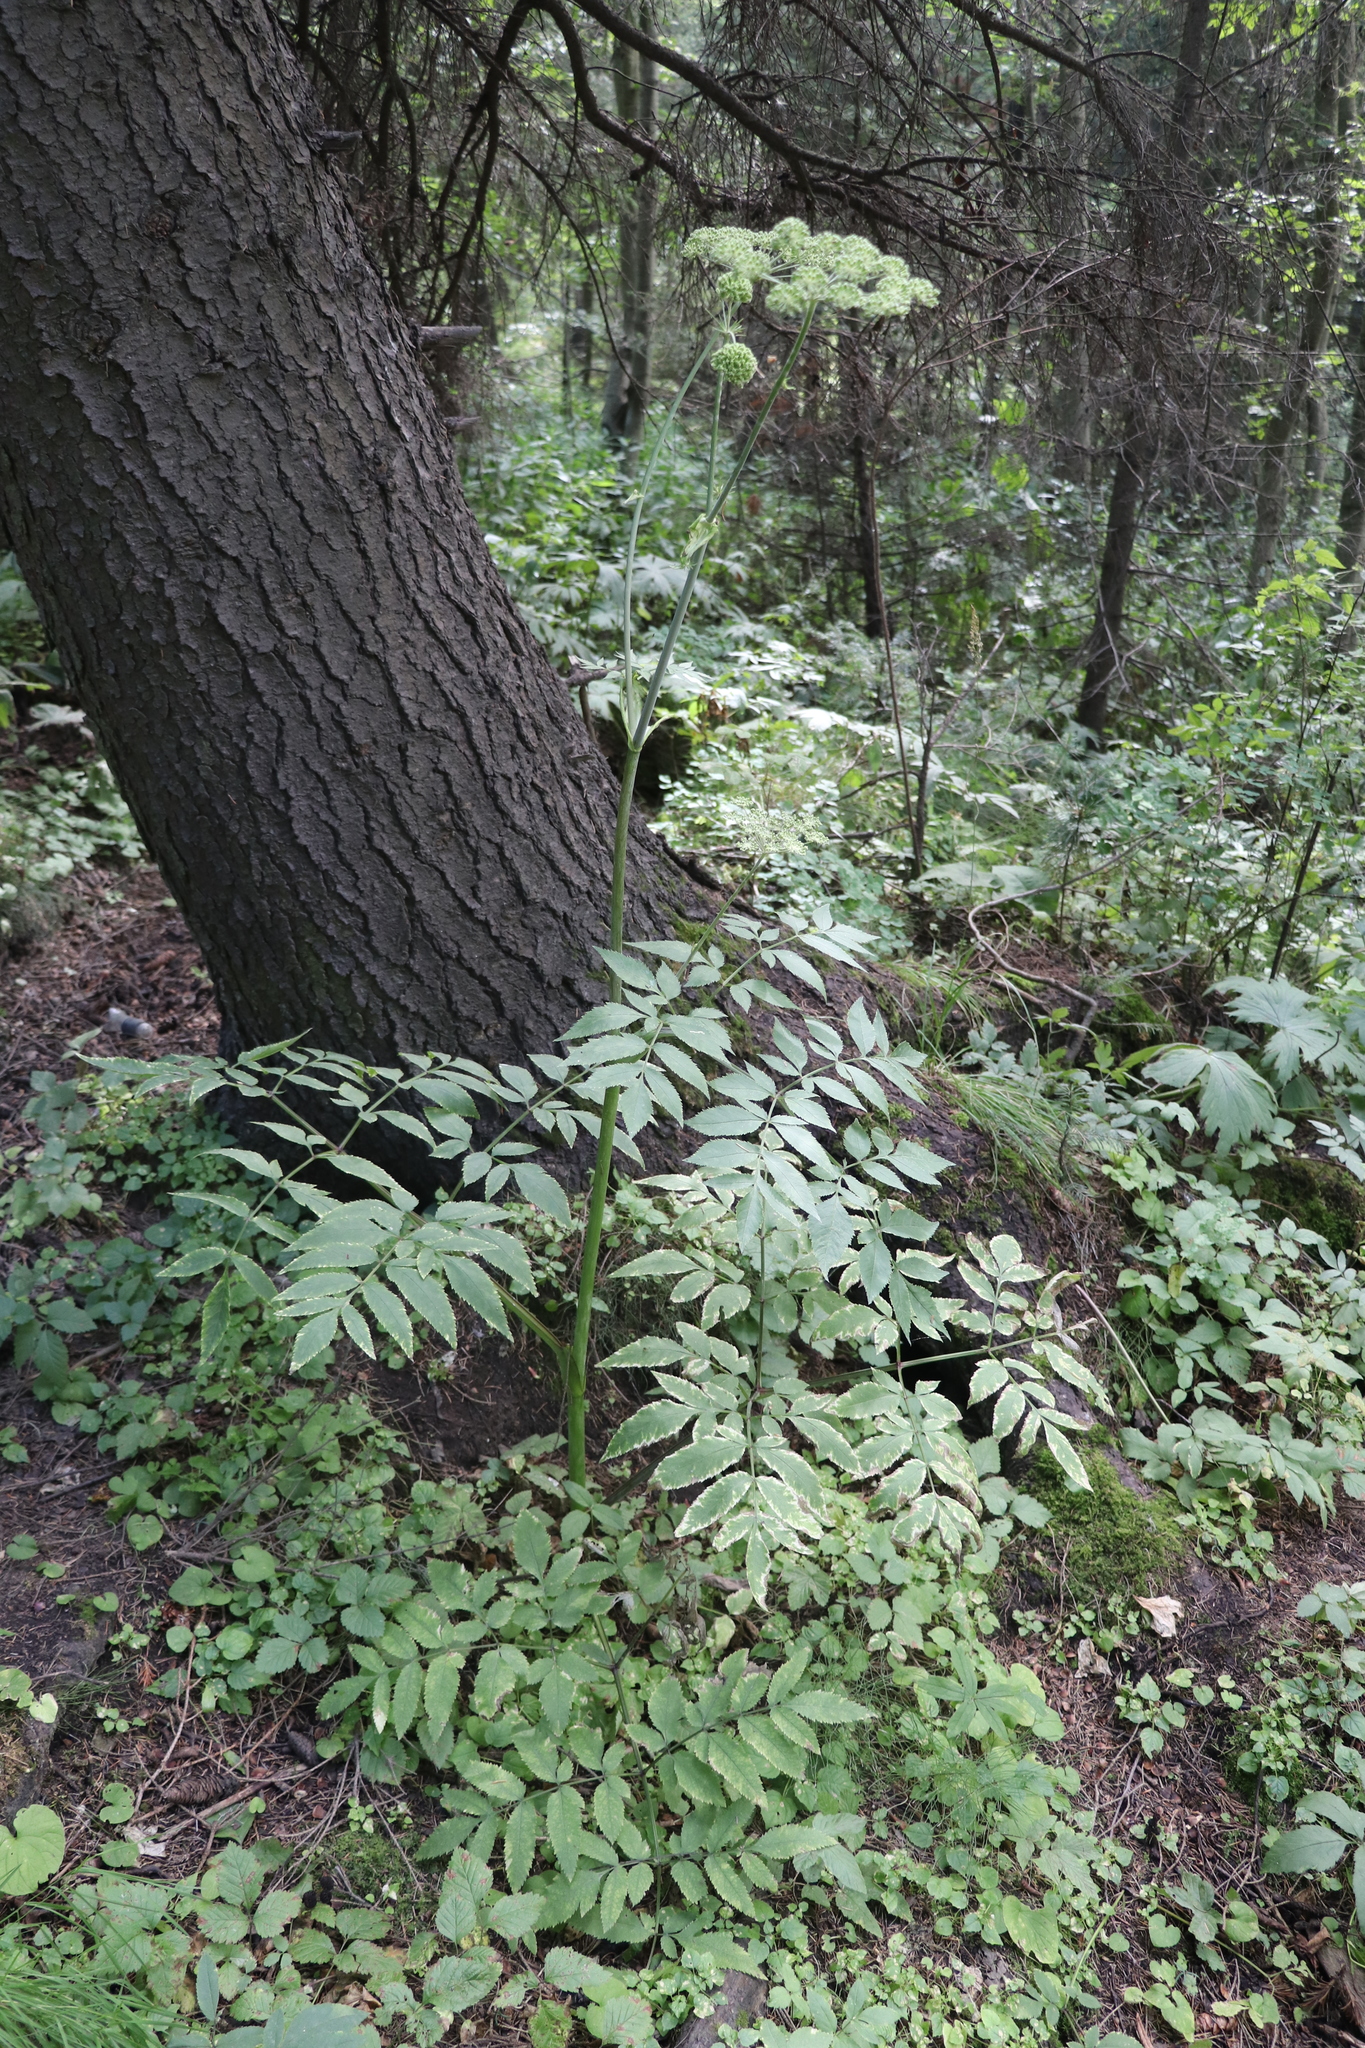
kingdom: Plantae
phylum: Tracheophyta
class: Magnoliopsida
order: Apiales
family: Apiaceae
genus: Angelica
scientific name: Angelica sylvestris
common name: Wild angelica
